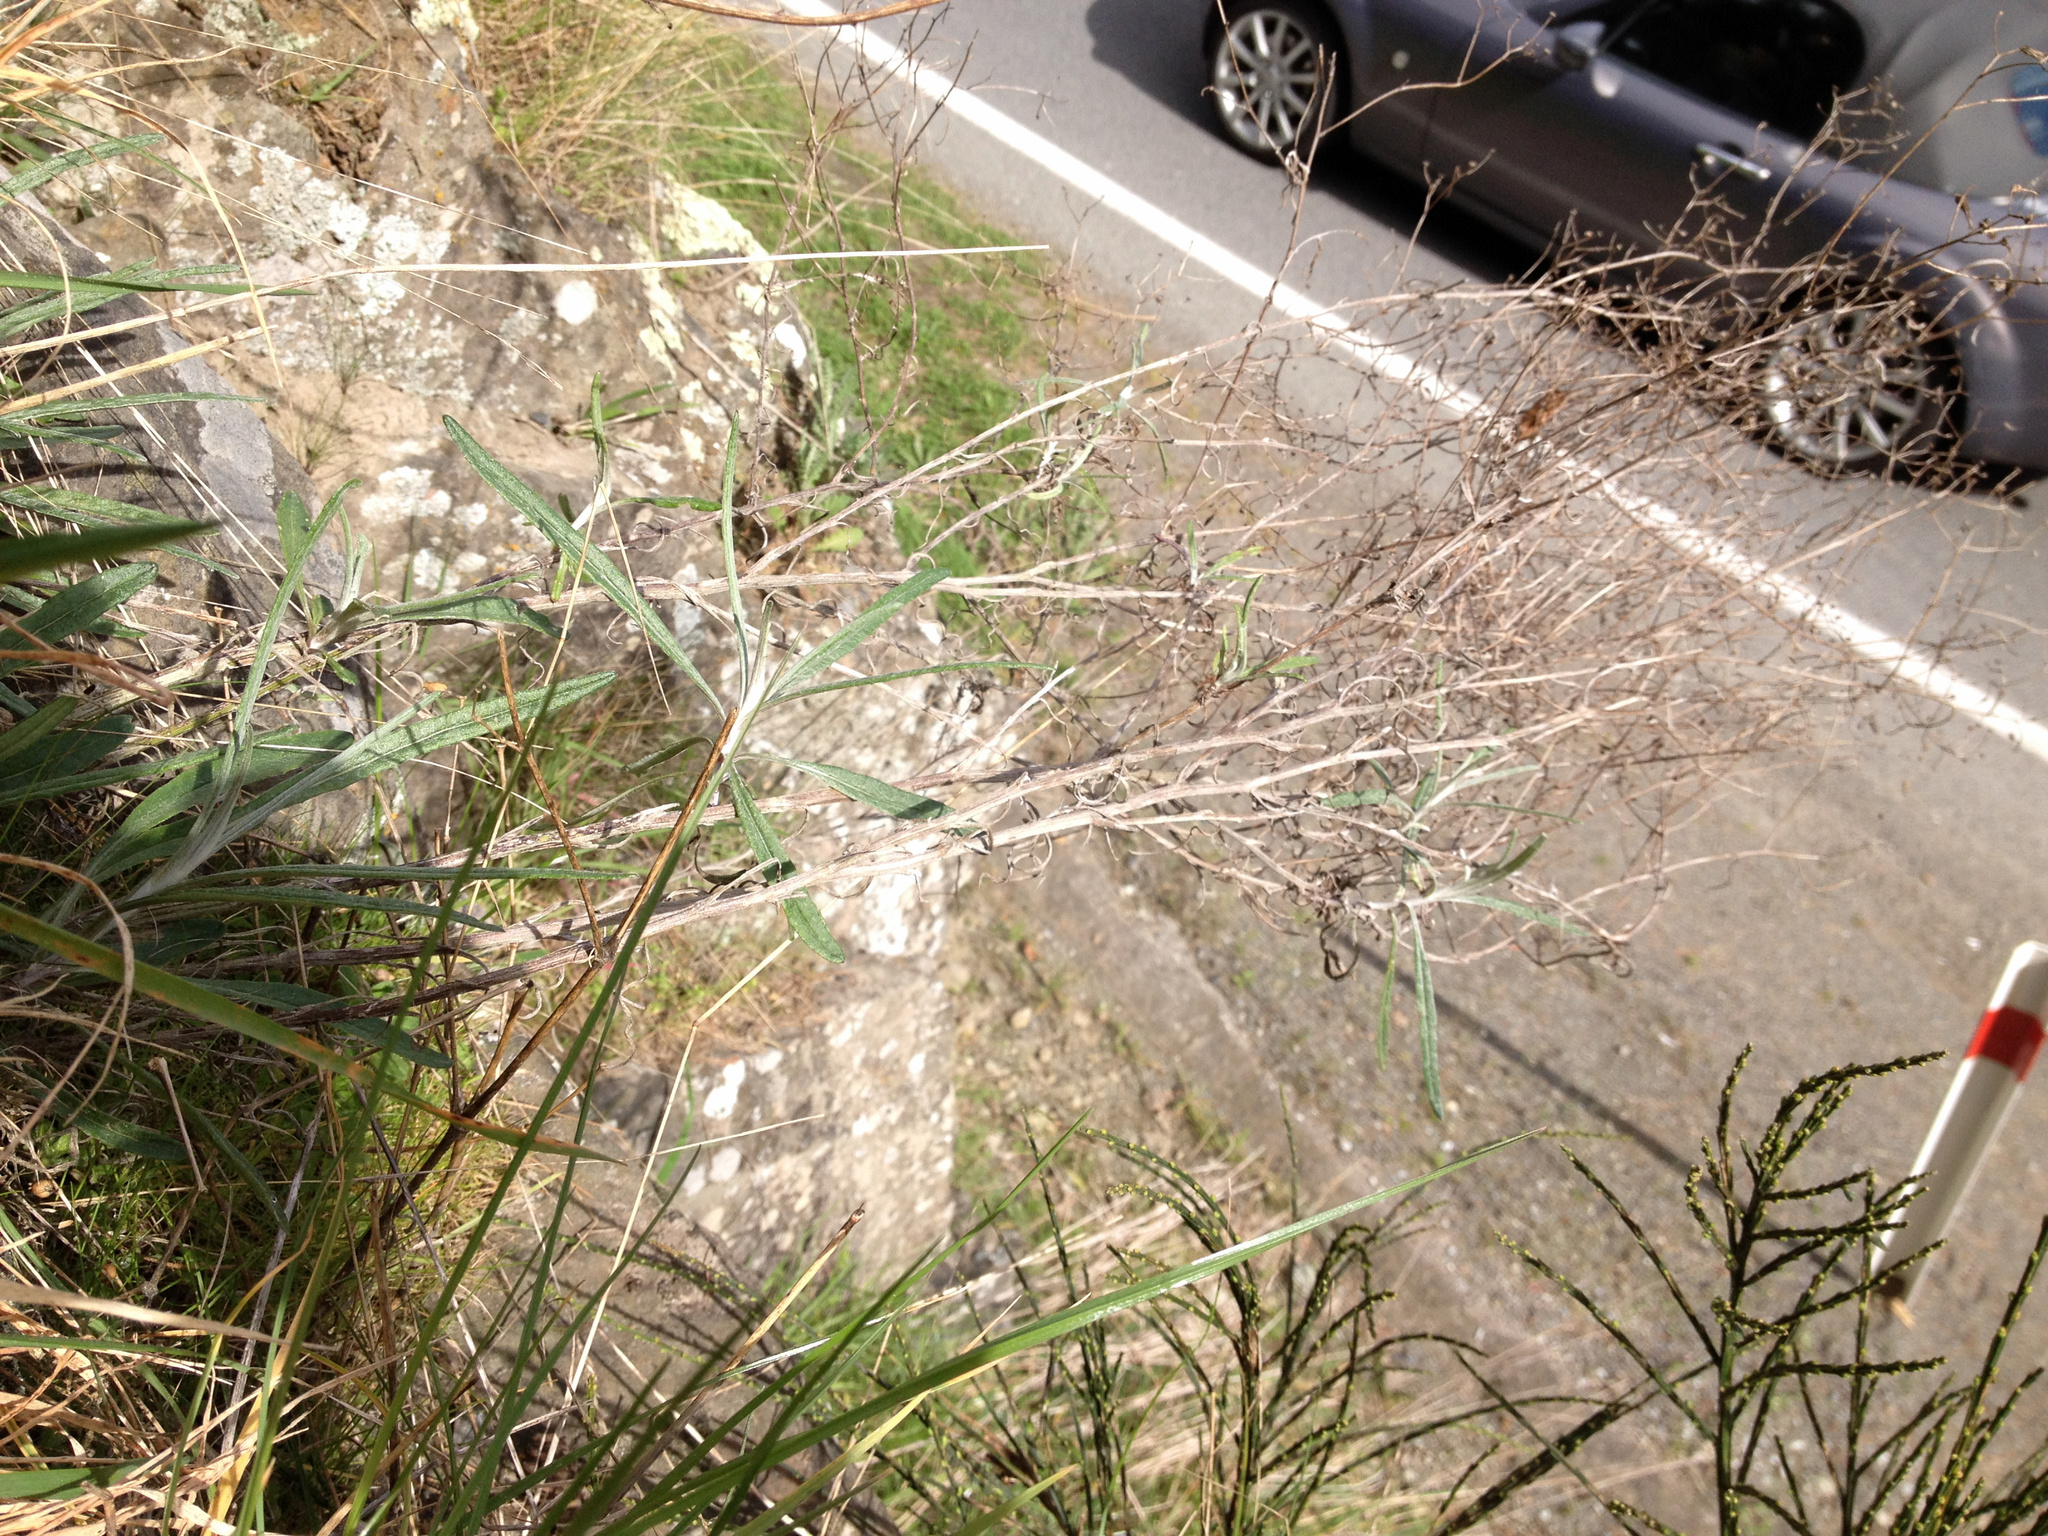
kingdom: Plantae
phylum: Tracheophyta
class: Magnoliopsida
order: Asterales
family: Asteraceae
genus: Senecio
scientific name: Senecio quadridentatus
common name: Cotton fireweed
